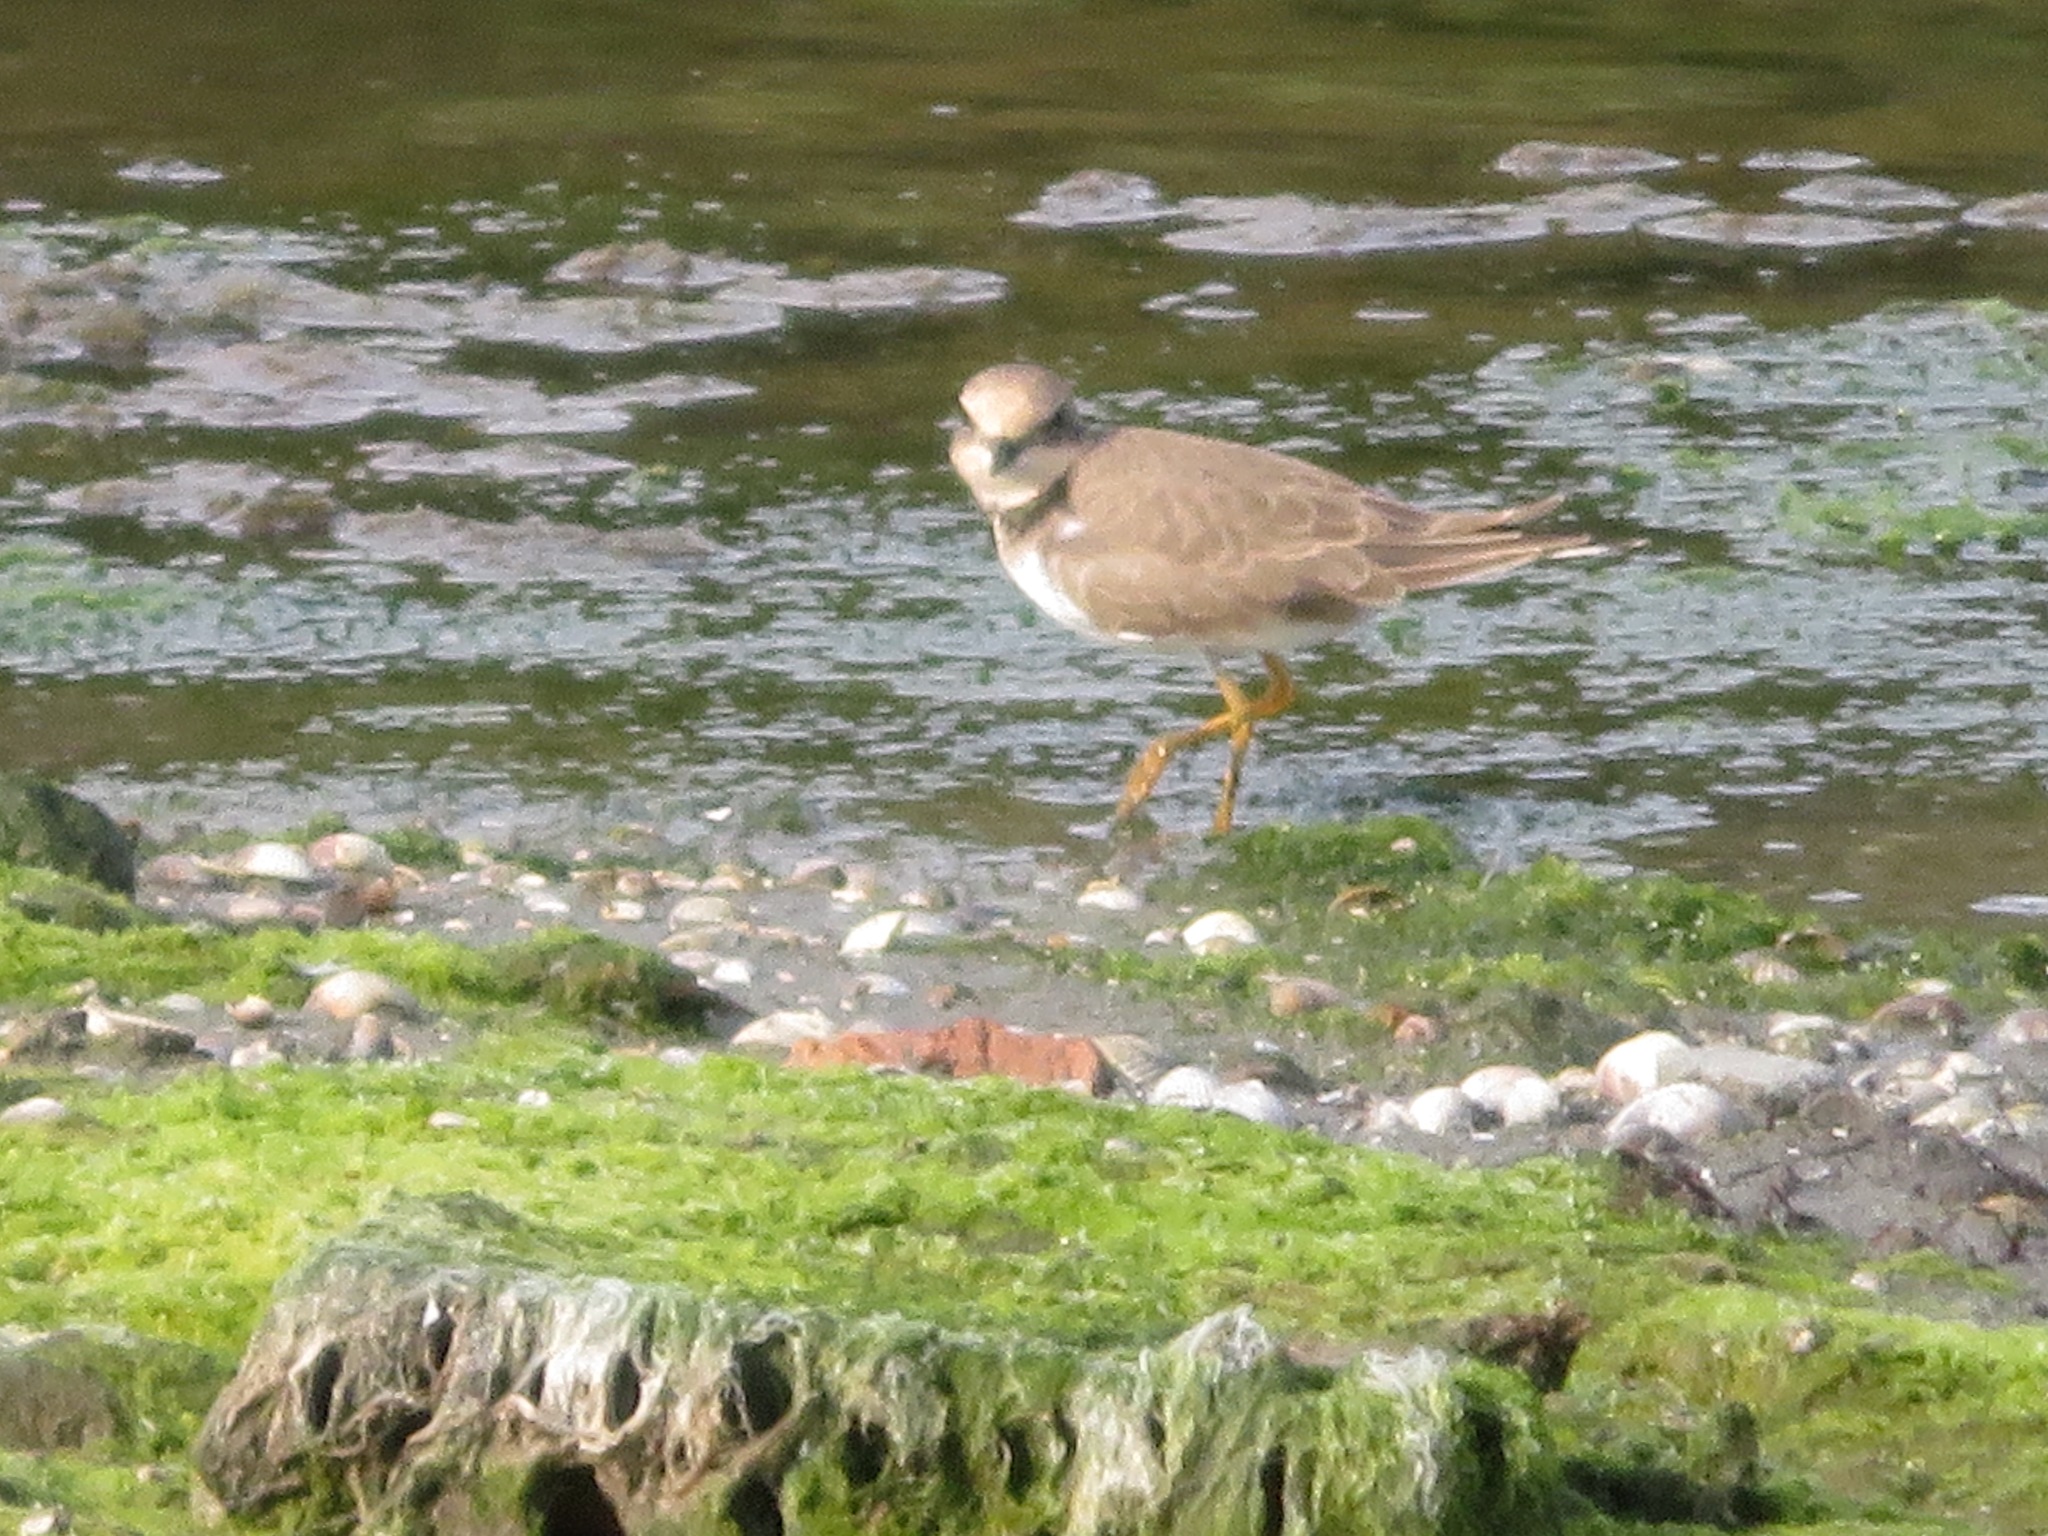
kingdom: Animalia
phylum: Chordata
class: Aves
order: Charadriiformes
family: Charadriidae
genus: Charadrius
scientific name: Charadrius dubius
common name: Little ringed plover
